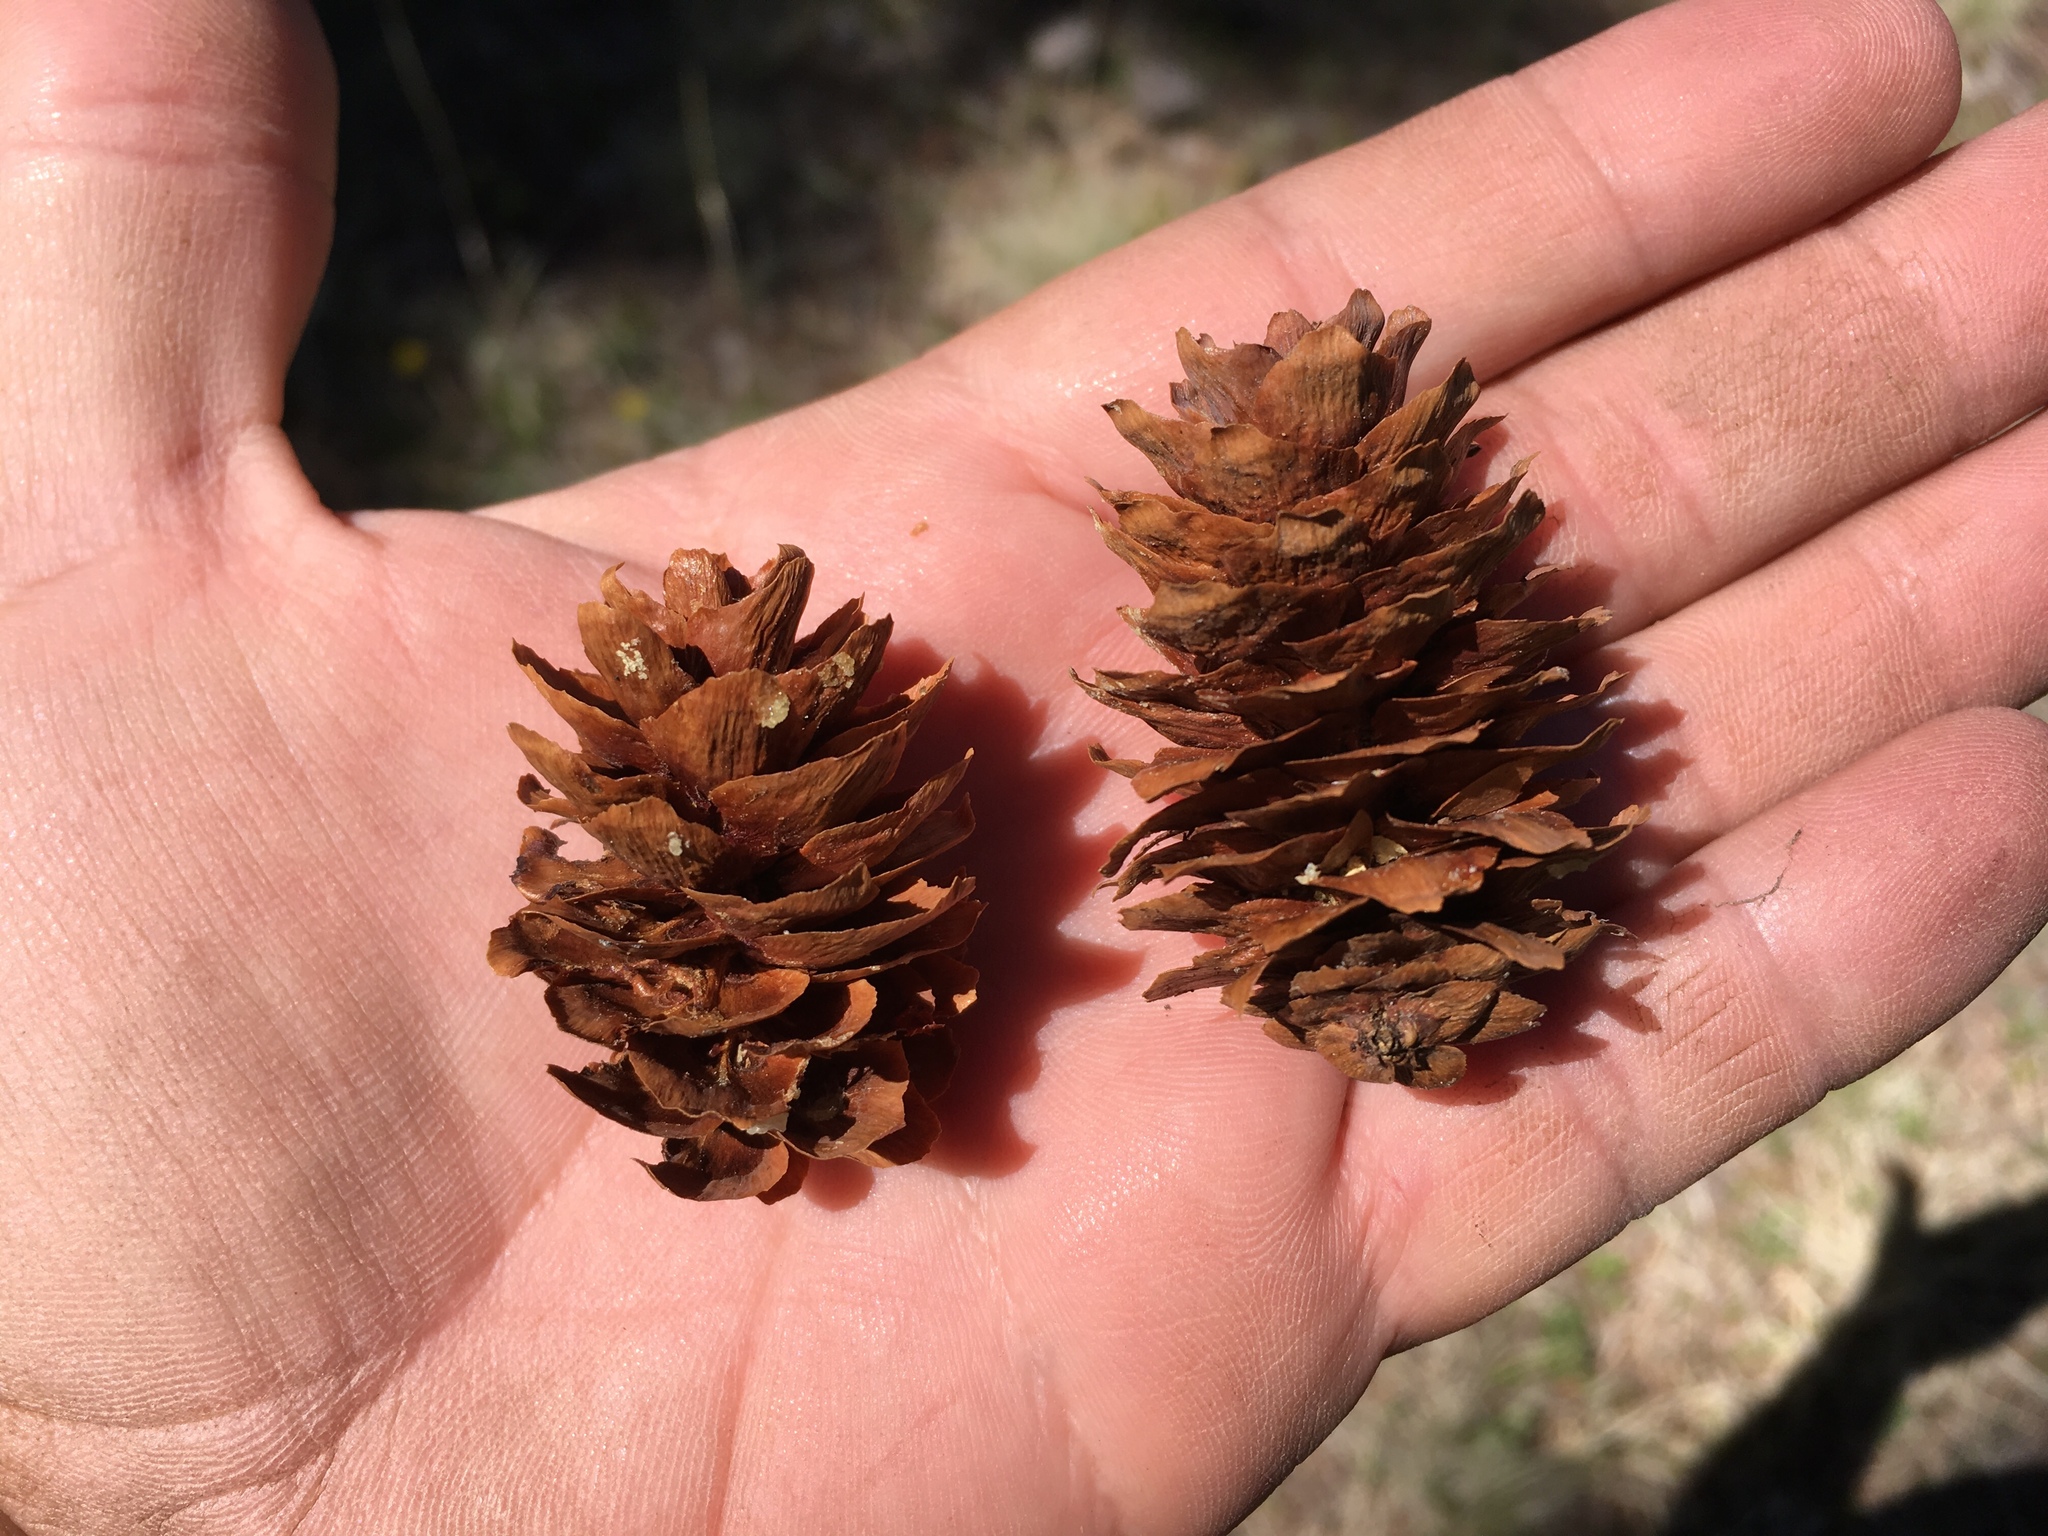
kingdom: Plantae
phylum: Tracheophyta
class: Pinopsida
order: Pinales
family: Pinaceae
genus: Picea
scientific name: Picea engelmannii
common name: Engelmann spruce
